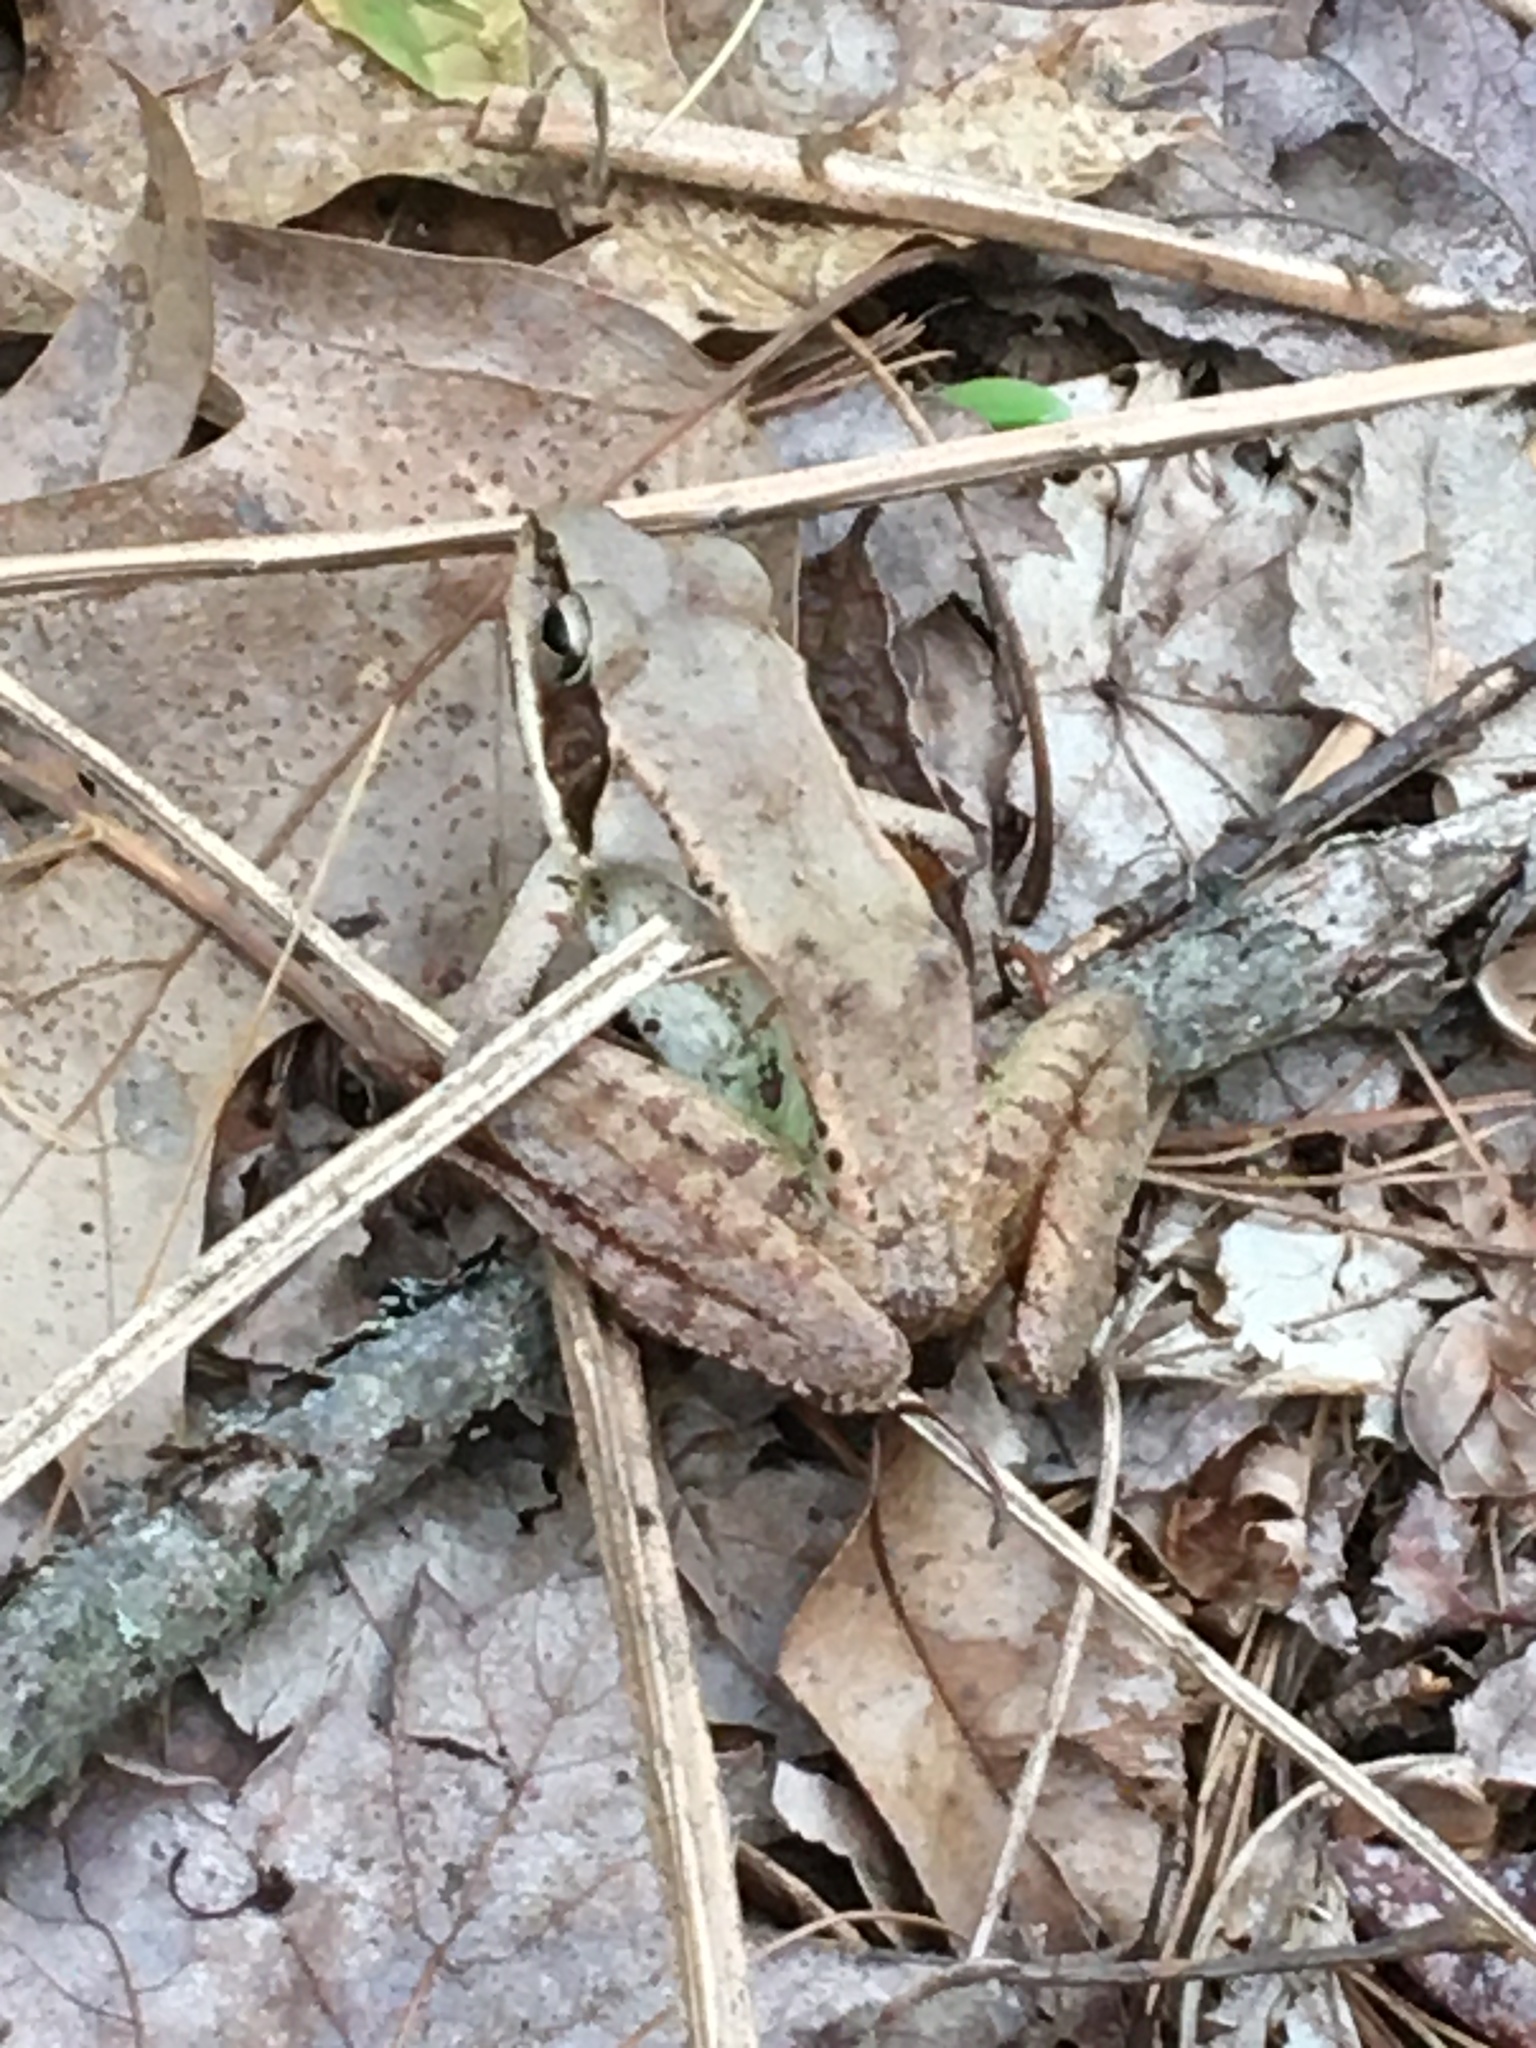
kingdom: Animalia
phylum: Chordata
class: Amphibia
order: Anura
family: Ranidae
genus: Lithobates
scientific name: Lithobates sylvaticus
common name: Wood frog
